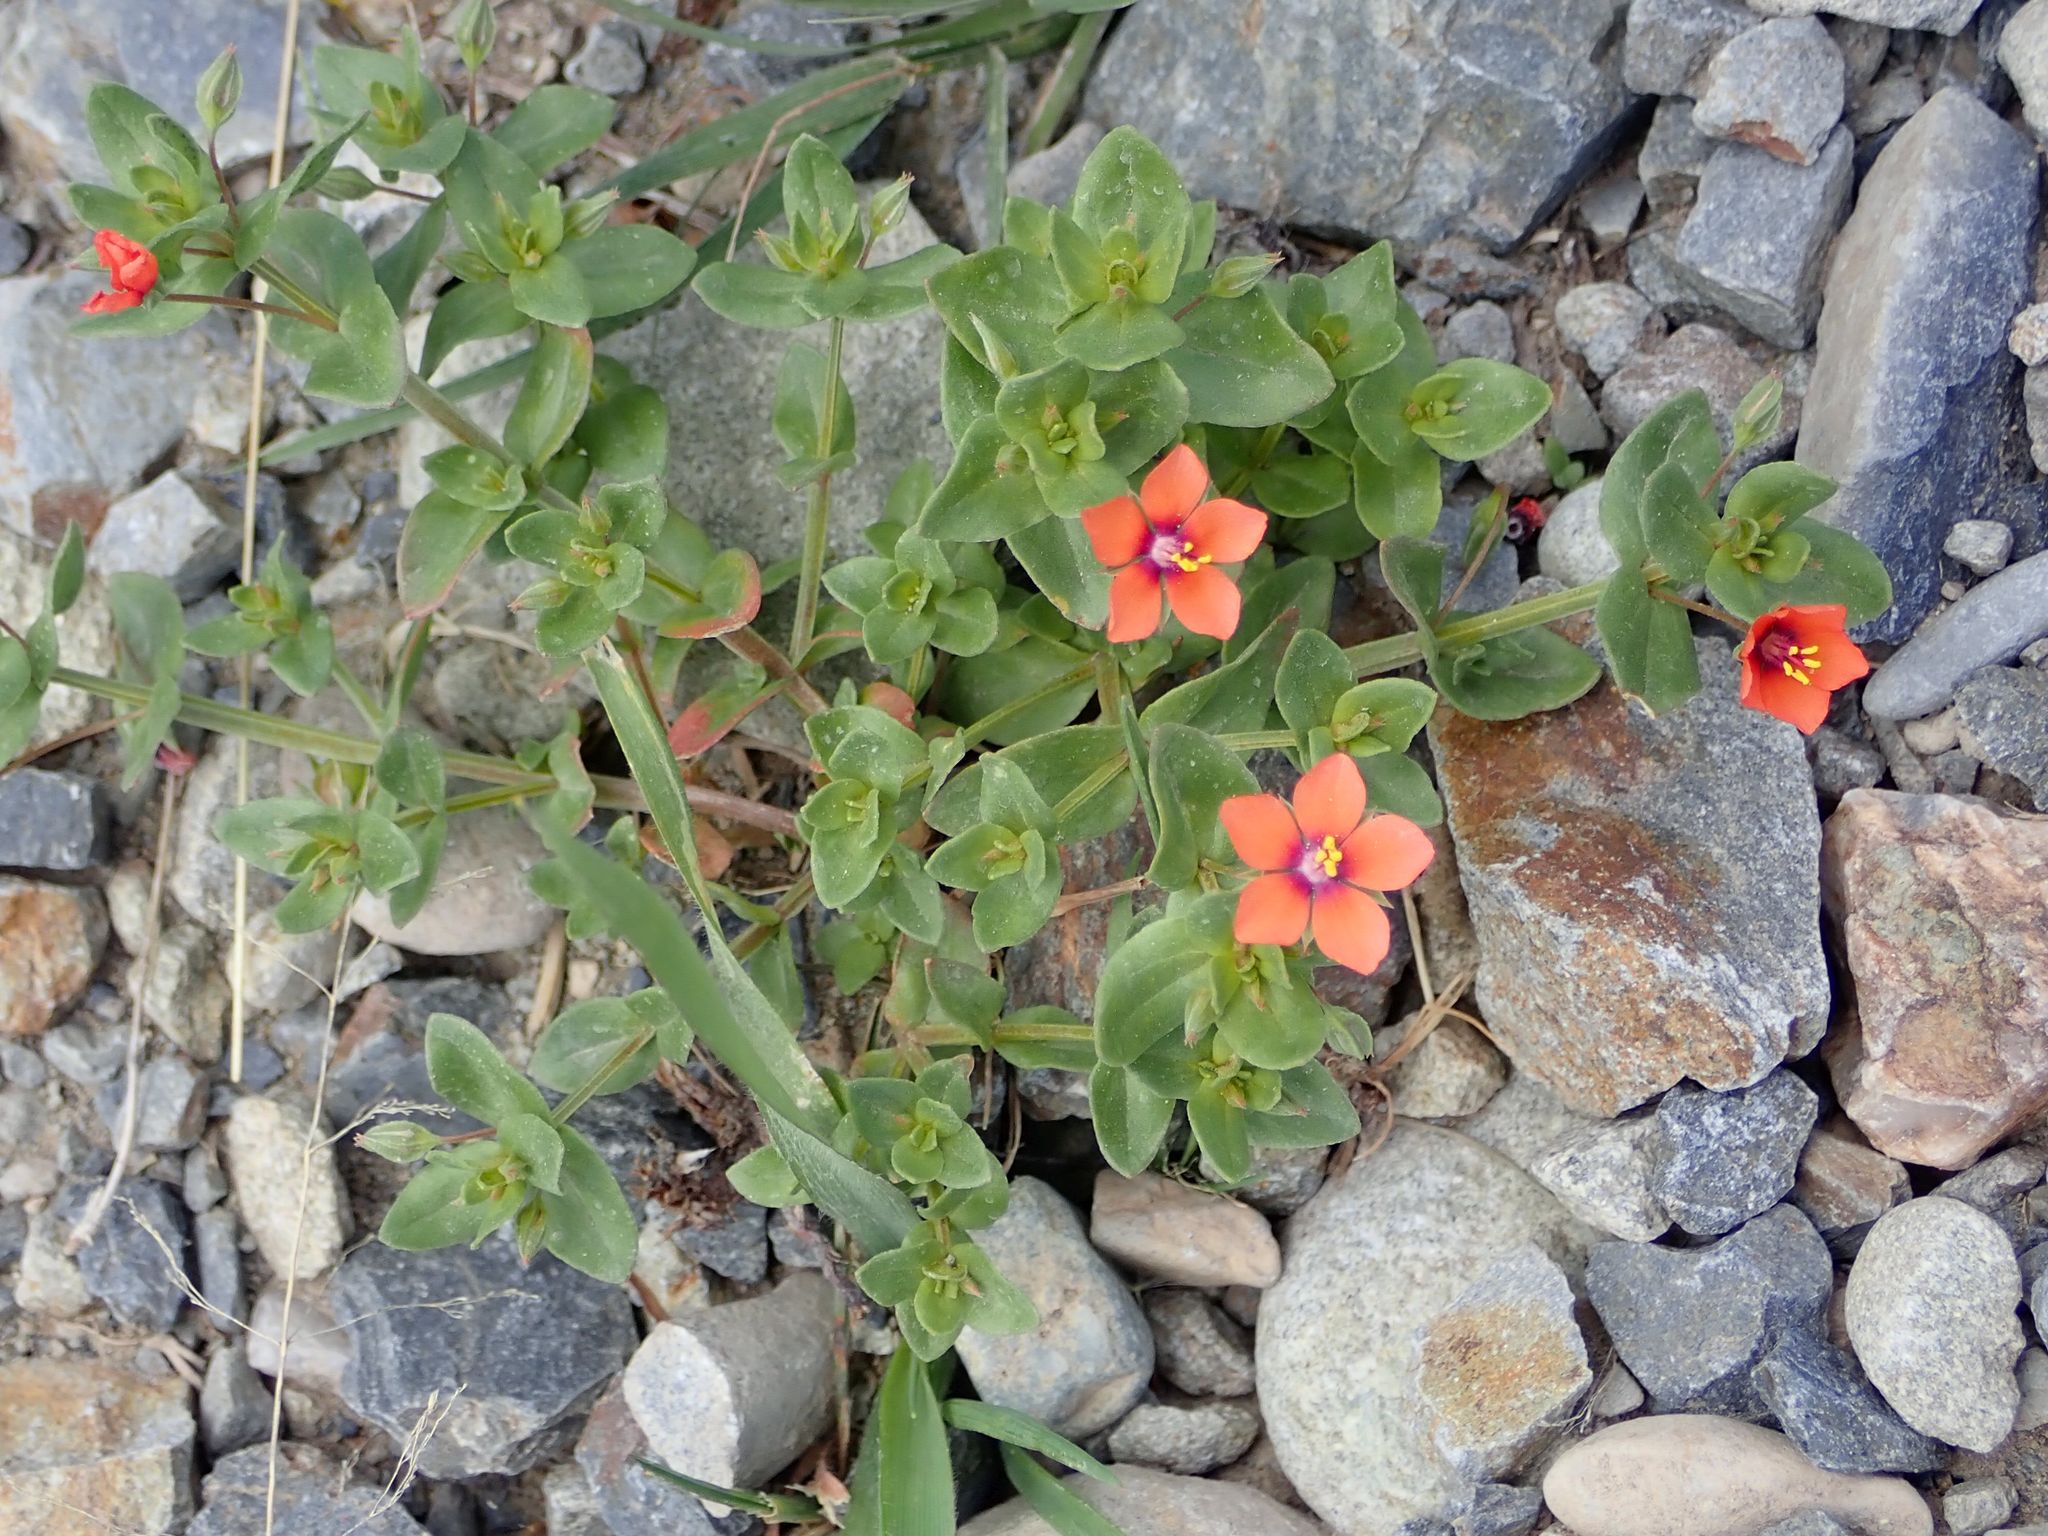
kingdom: Plantae
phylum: Tracheophyta
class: Magnoliopsida
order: Ericales
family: Primulaceae
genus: Lysimachia
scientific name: Lysimachia arvensis
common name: Scarlet pimpernel
